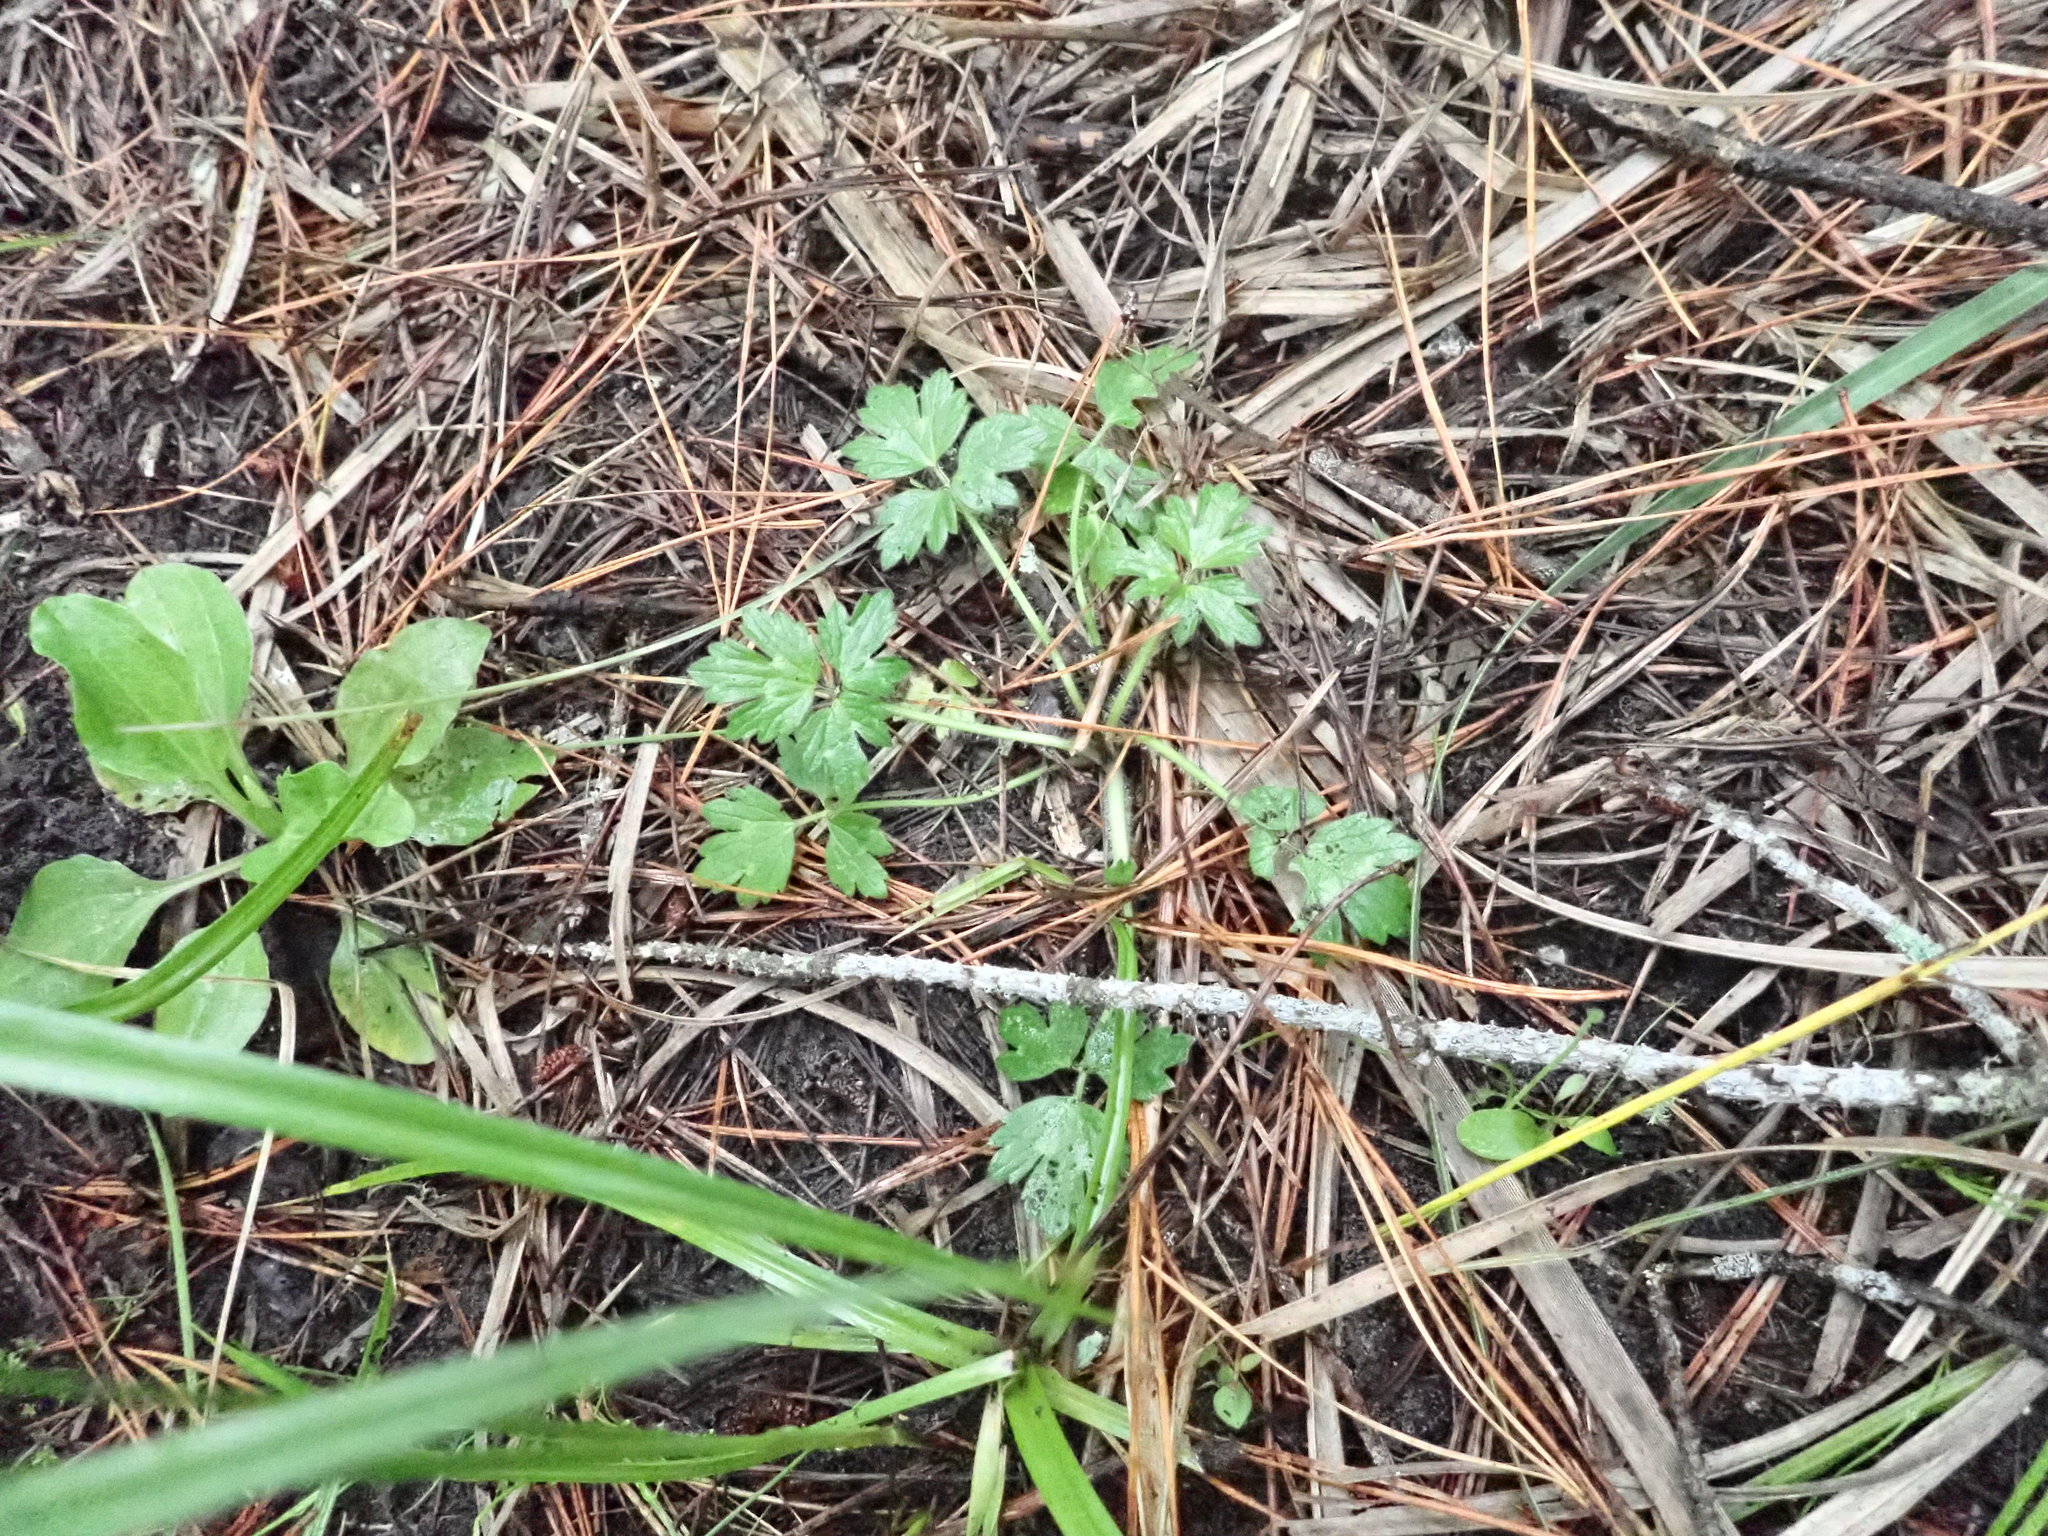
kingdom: Plantae
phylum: Tracheophyta
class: Magnoliopsida
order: Ranunculales
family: Ranunculaceae
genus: Ranunculus
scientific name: Ranunculus repens
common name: Creeping buttercup
